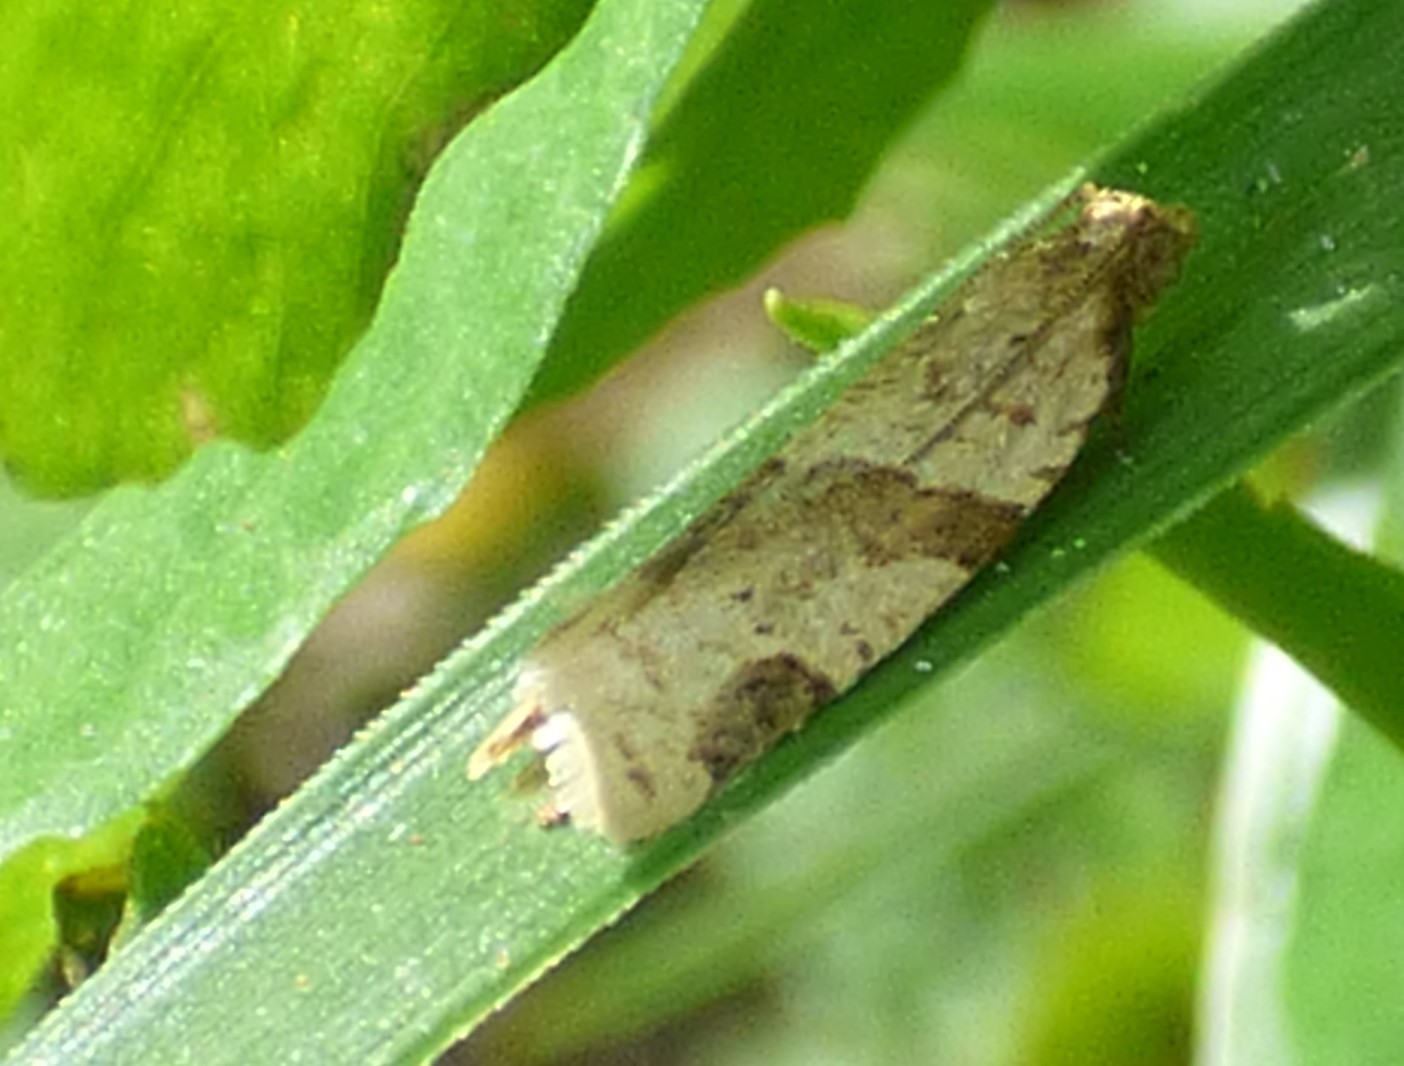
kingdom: Animalia
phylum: Arthropoda
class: Insecta
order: Lepidoptera
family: Tortricidae
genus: Clepsis
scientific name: Clepsis peritana
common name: Garden tortrix
